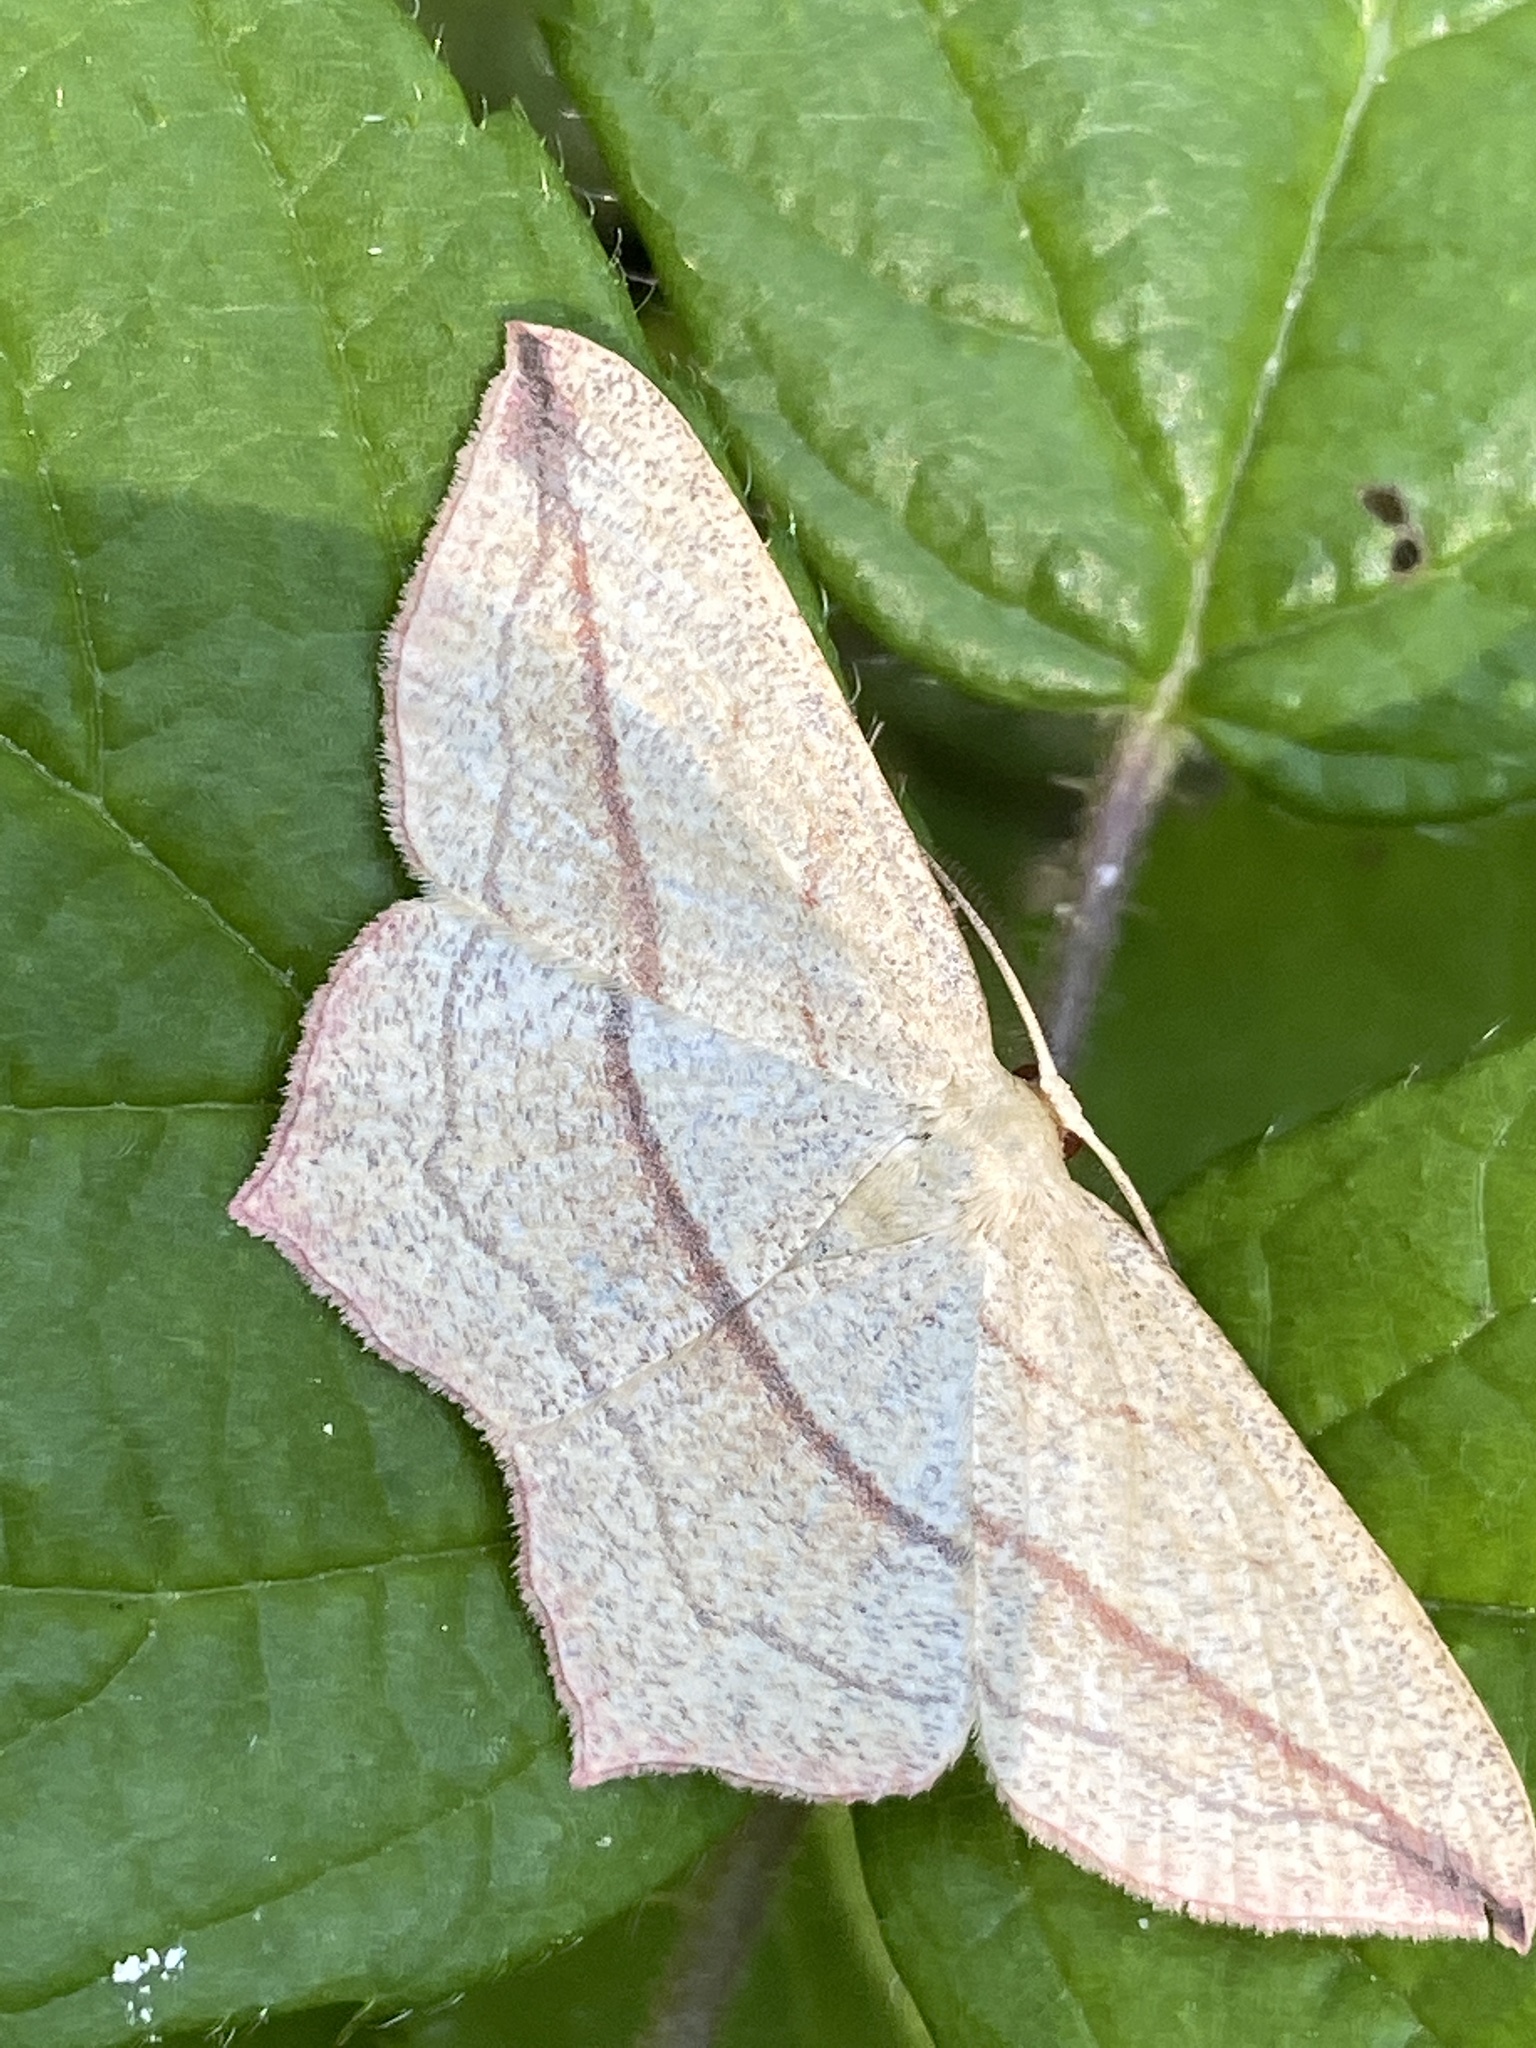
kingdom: Animalia
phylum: Arthropoda
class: Insecta
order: Lepidoptera
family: Geometridae
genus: Timandra
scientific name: Timandra comae
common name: Blood-vein
